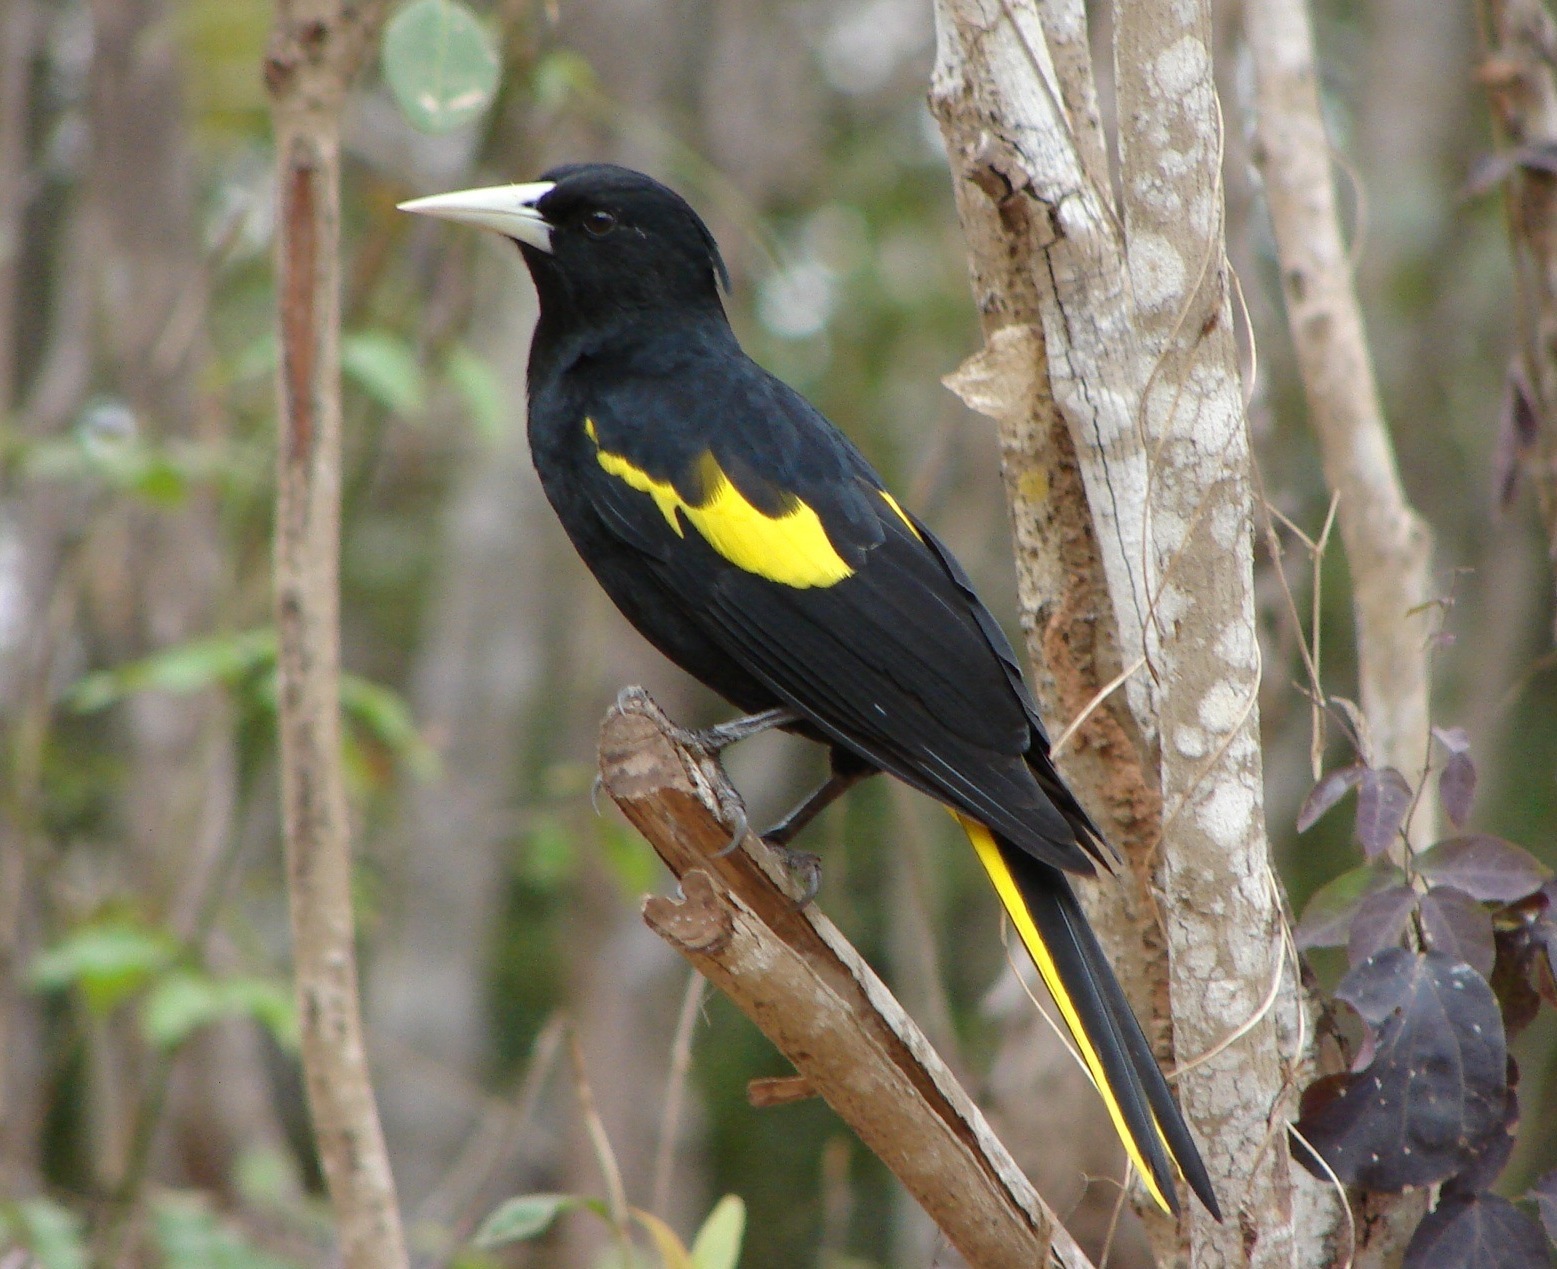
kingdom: Animalia
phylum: Chordata
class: Aves
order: Passeriformes
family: Icteridae
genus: Cacicus
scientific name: Cacicus melanicterus
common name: Yellow-winged cacique
